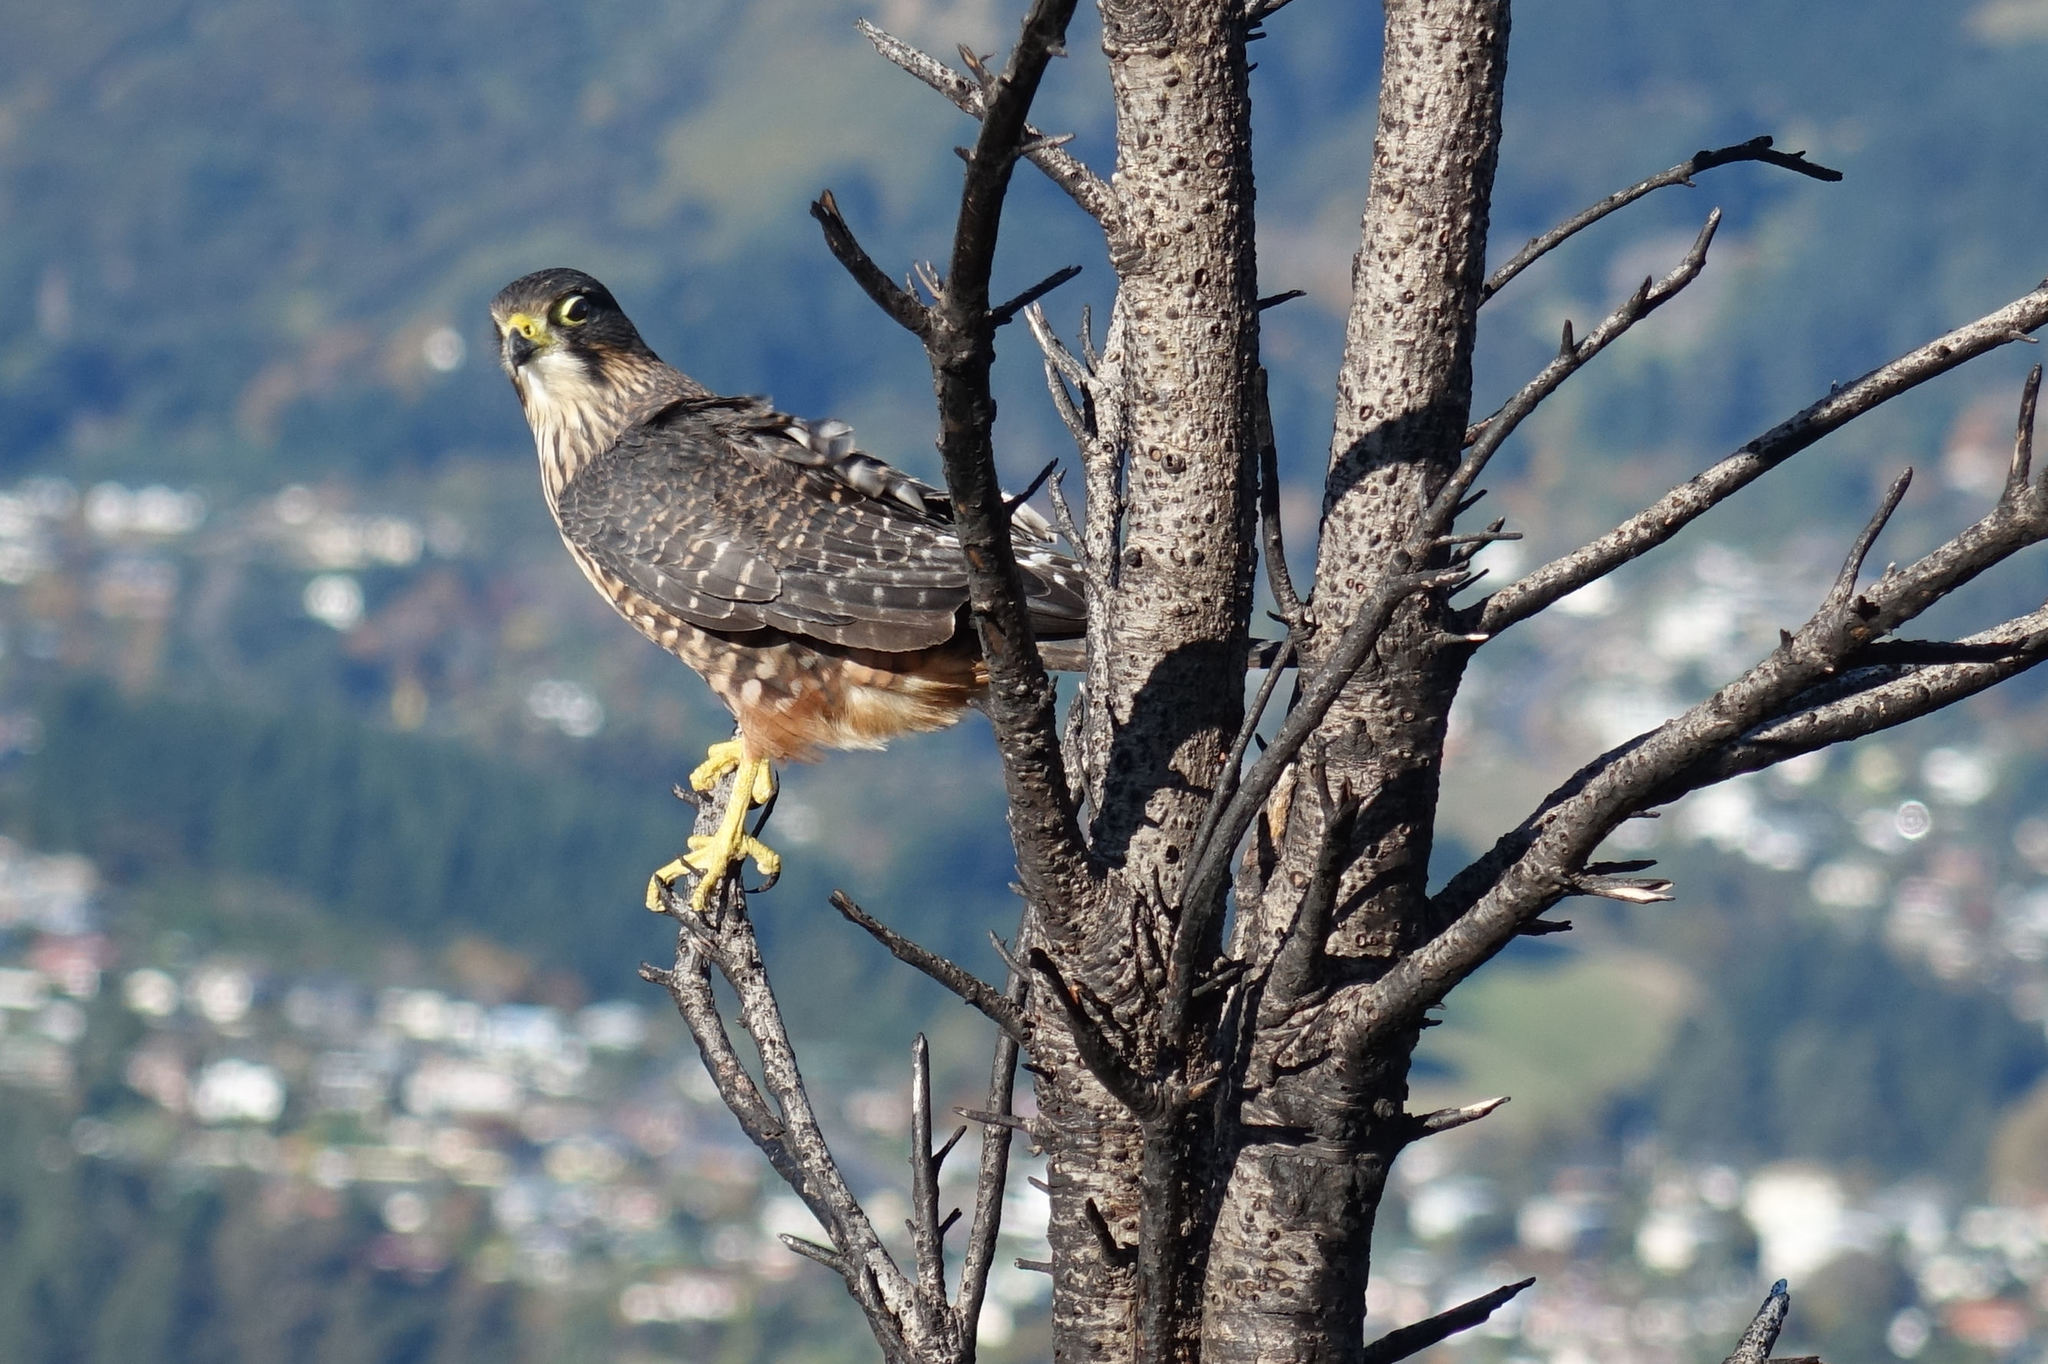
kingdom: Animalia
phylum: Chordata
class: Aves
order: Falconiformes
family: Falconidae
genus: Falco
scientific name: Falco novaeseelandiae
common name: New zealand falcon
